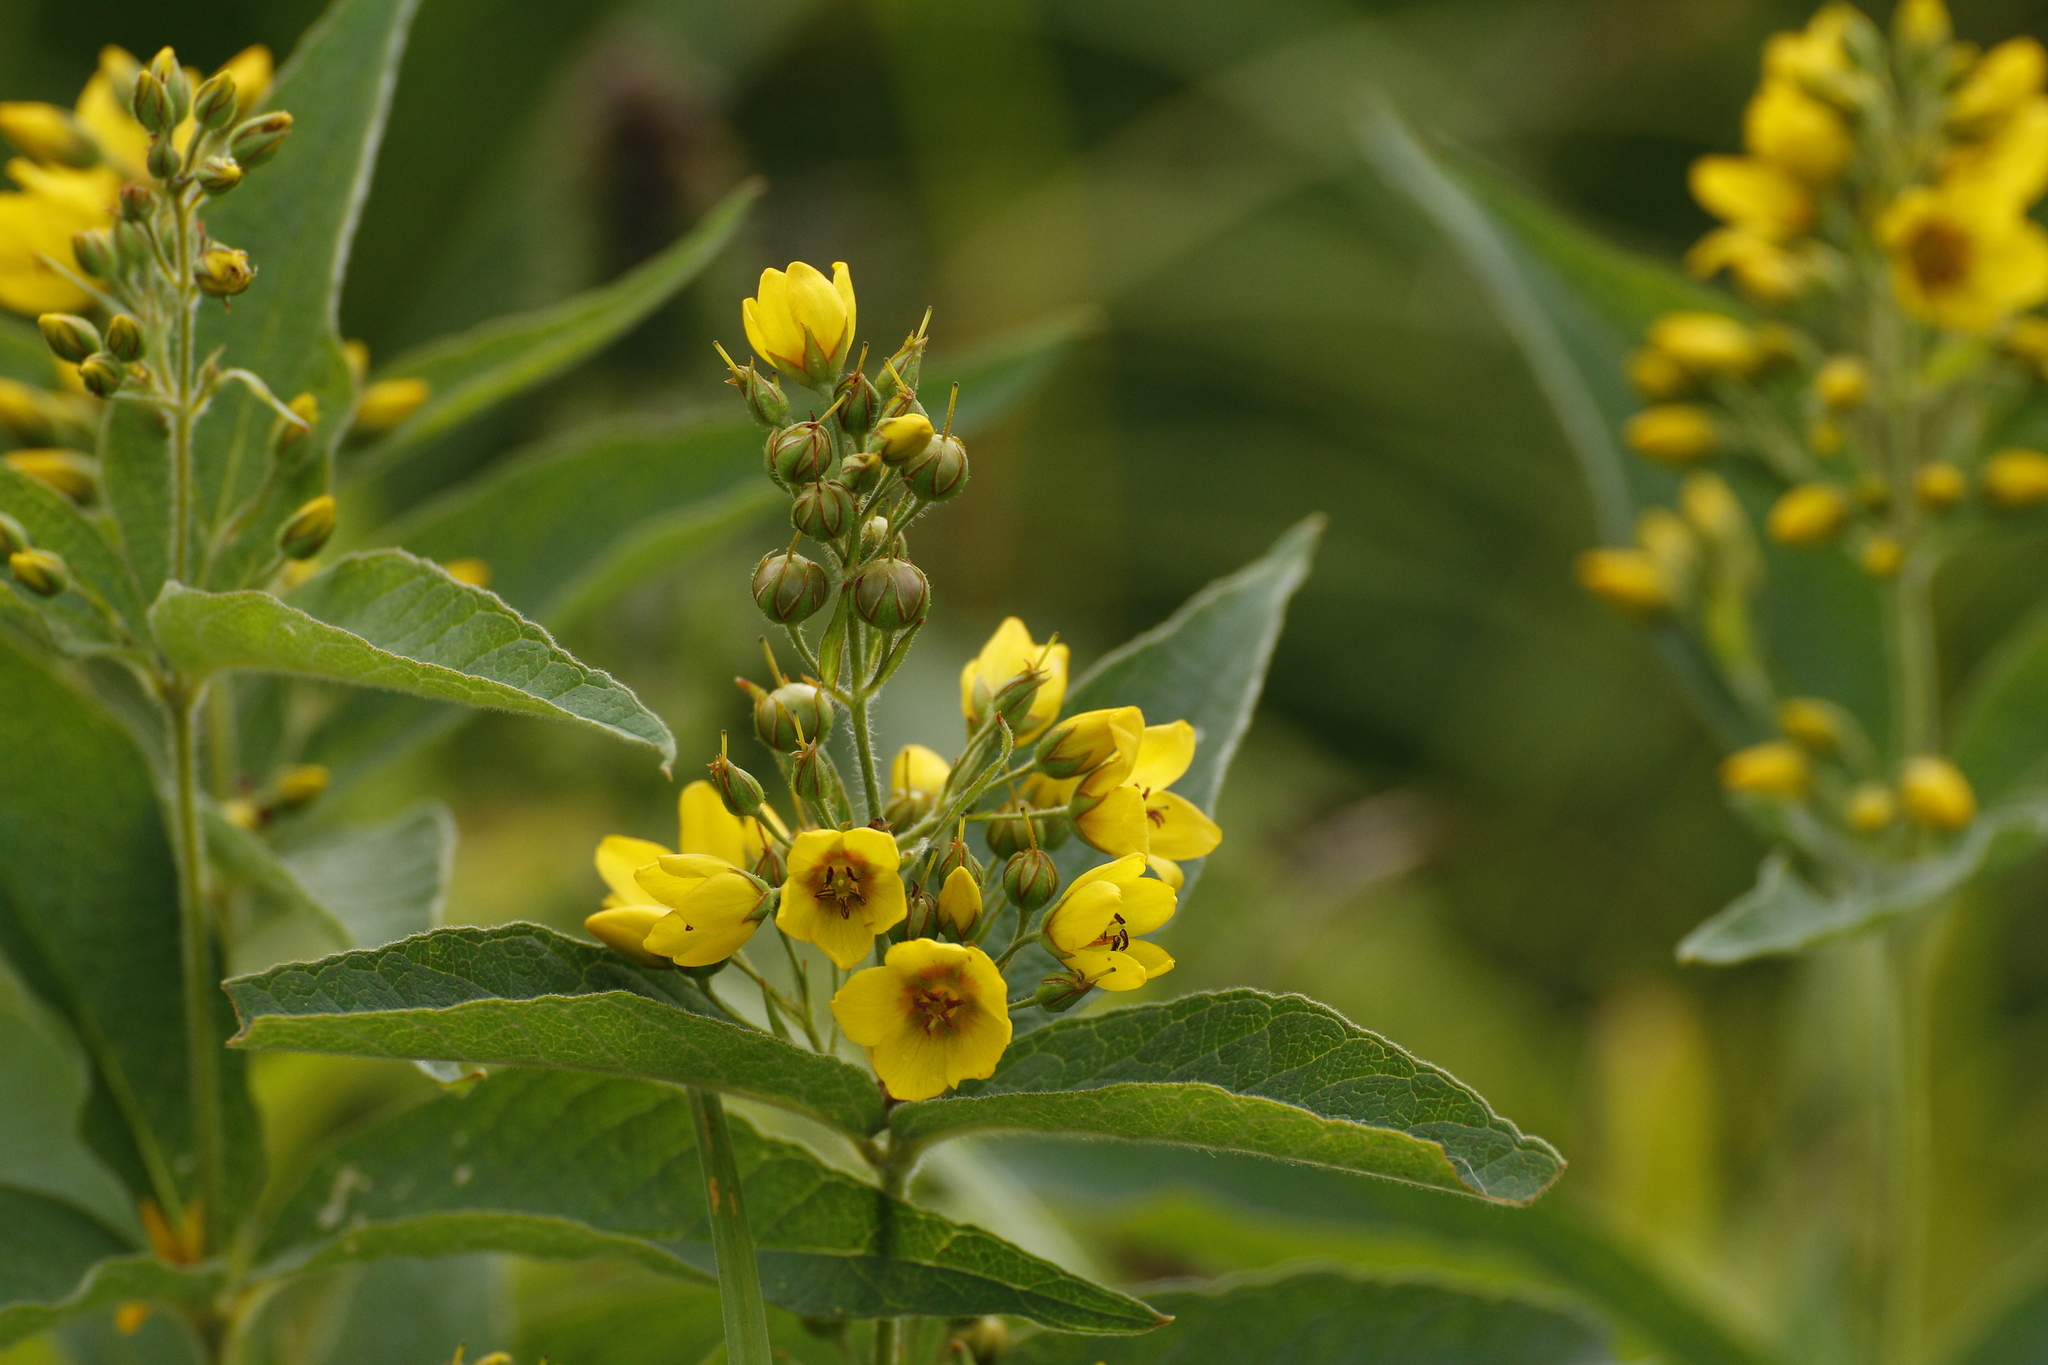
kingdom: Plantae
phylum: Tracheophyta
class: Magnoliopsida
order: Ericales
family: Primulaceae
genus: Lysimachia
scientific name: Lysimachia vulgaris
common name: Yellow loosestrife
